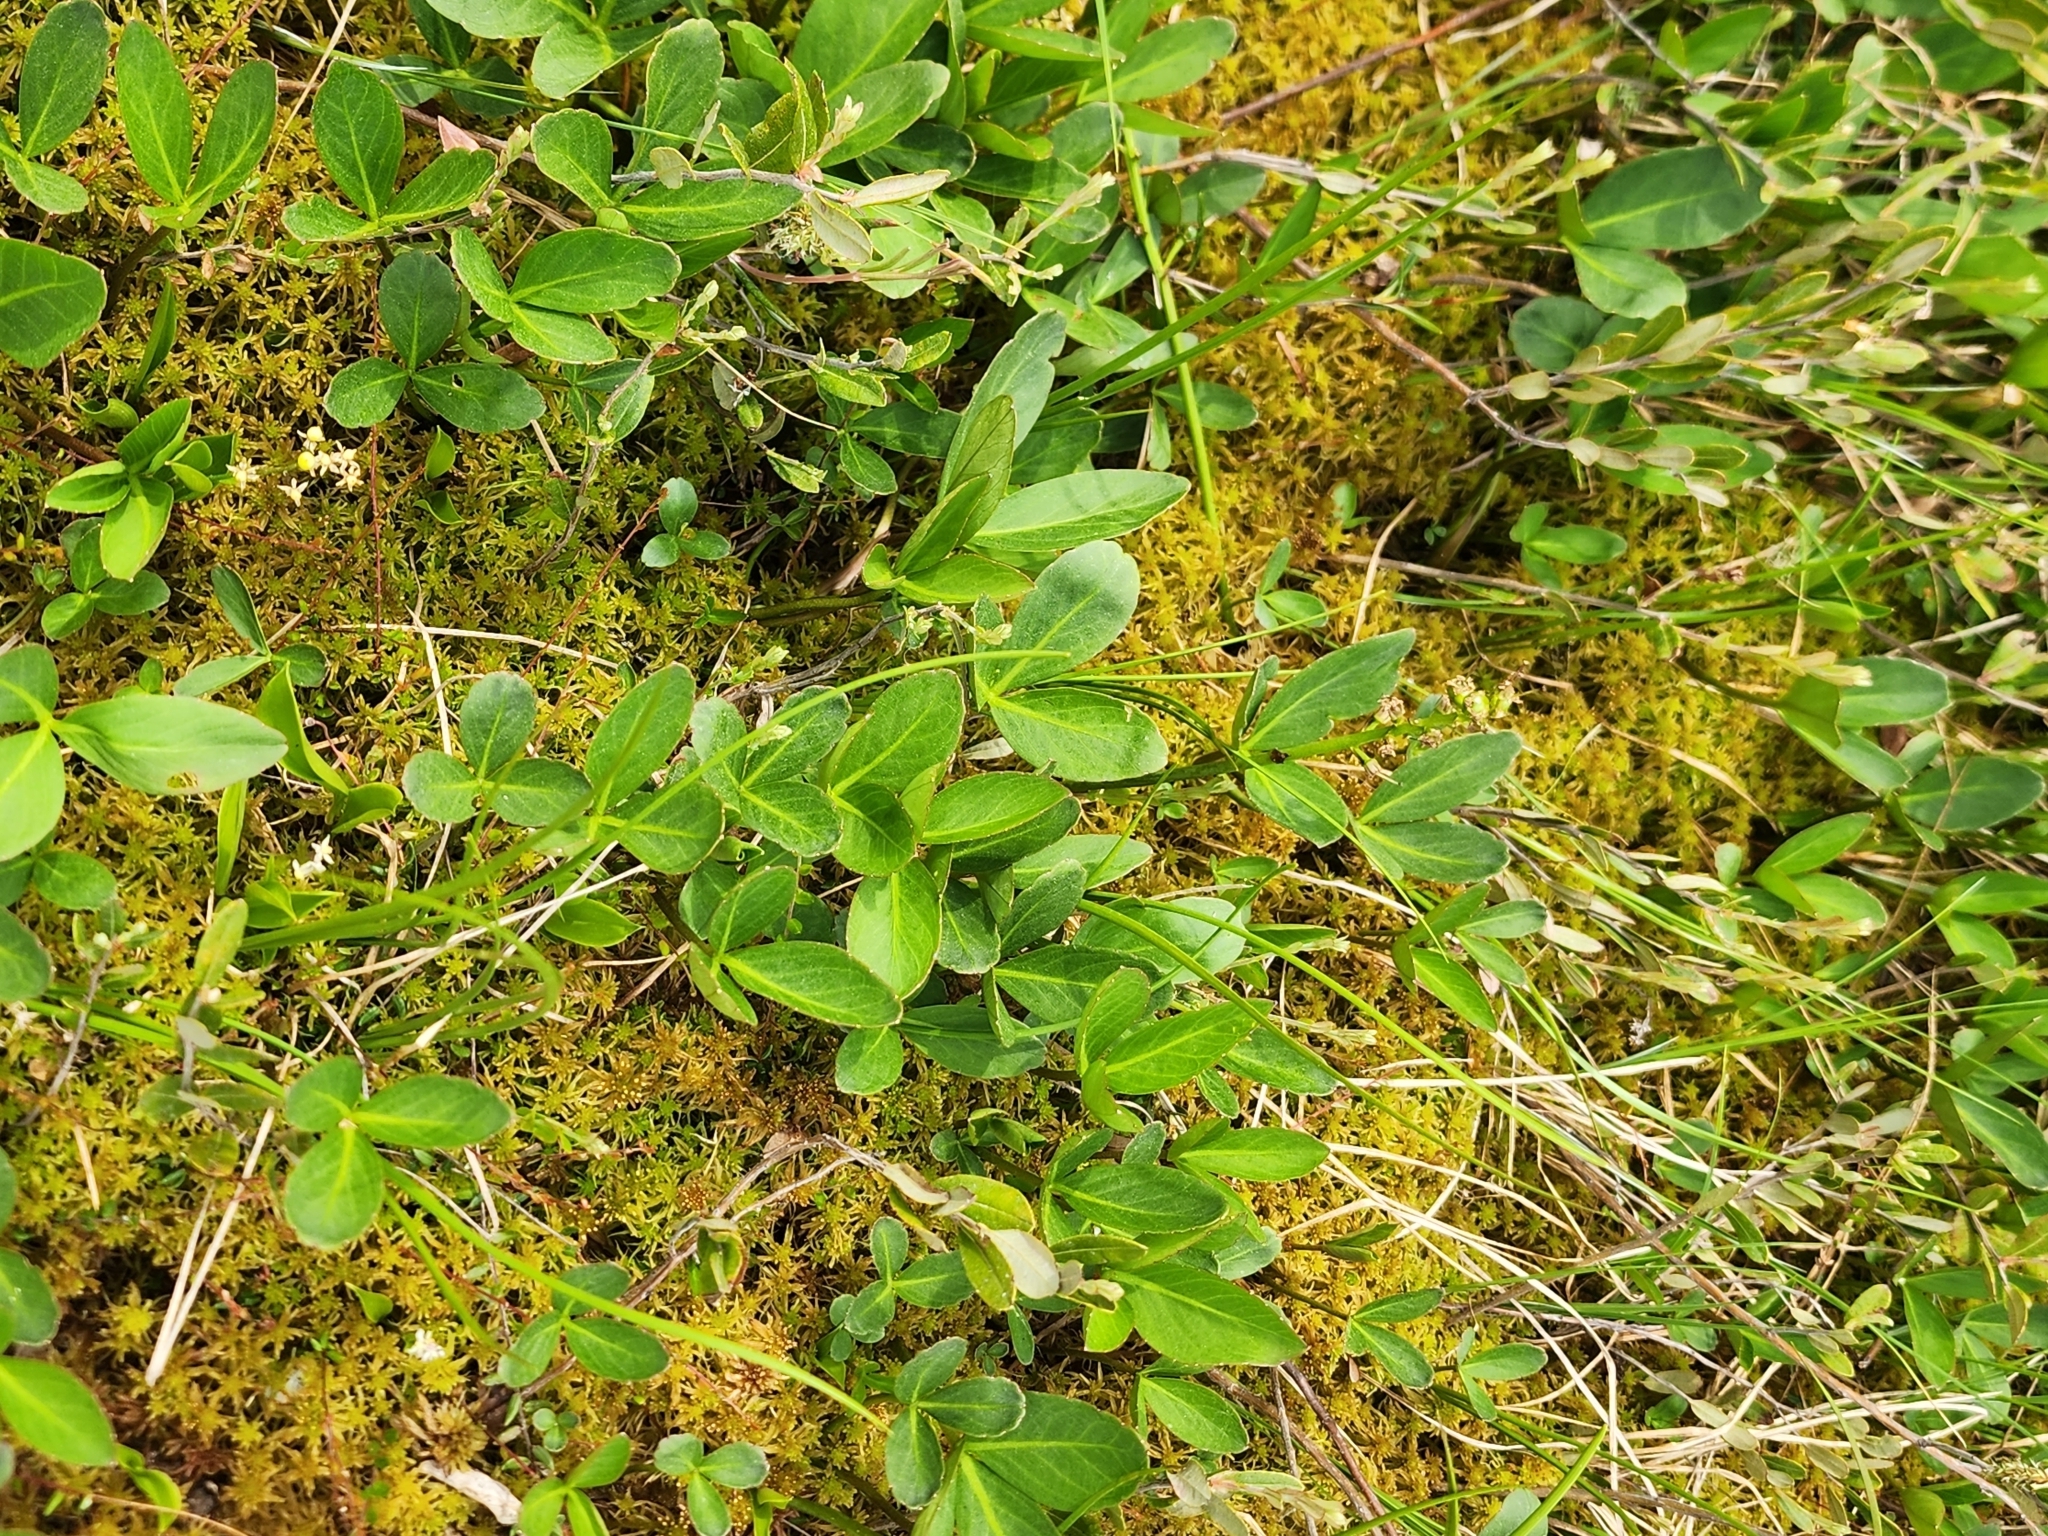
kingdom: Plantae
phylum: Tracheophyta
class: Magnoliopsida
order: Asterales
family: Menyanthaceae
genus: Menyanthes
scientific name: Menyanthes trifoliata
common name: Bogbean
